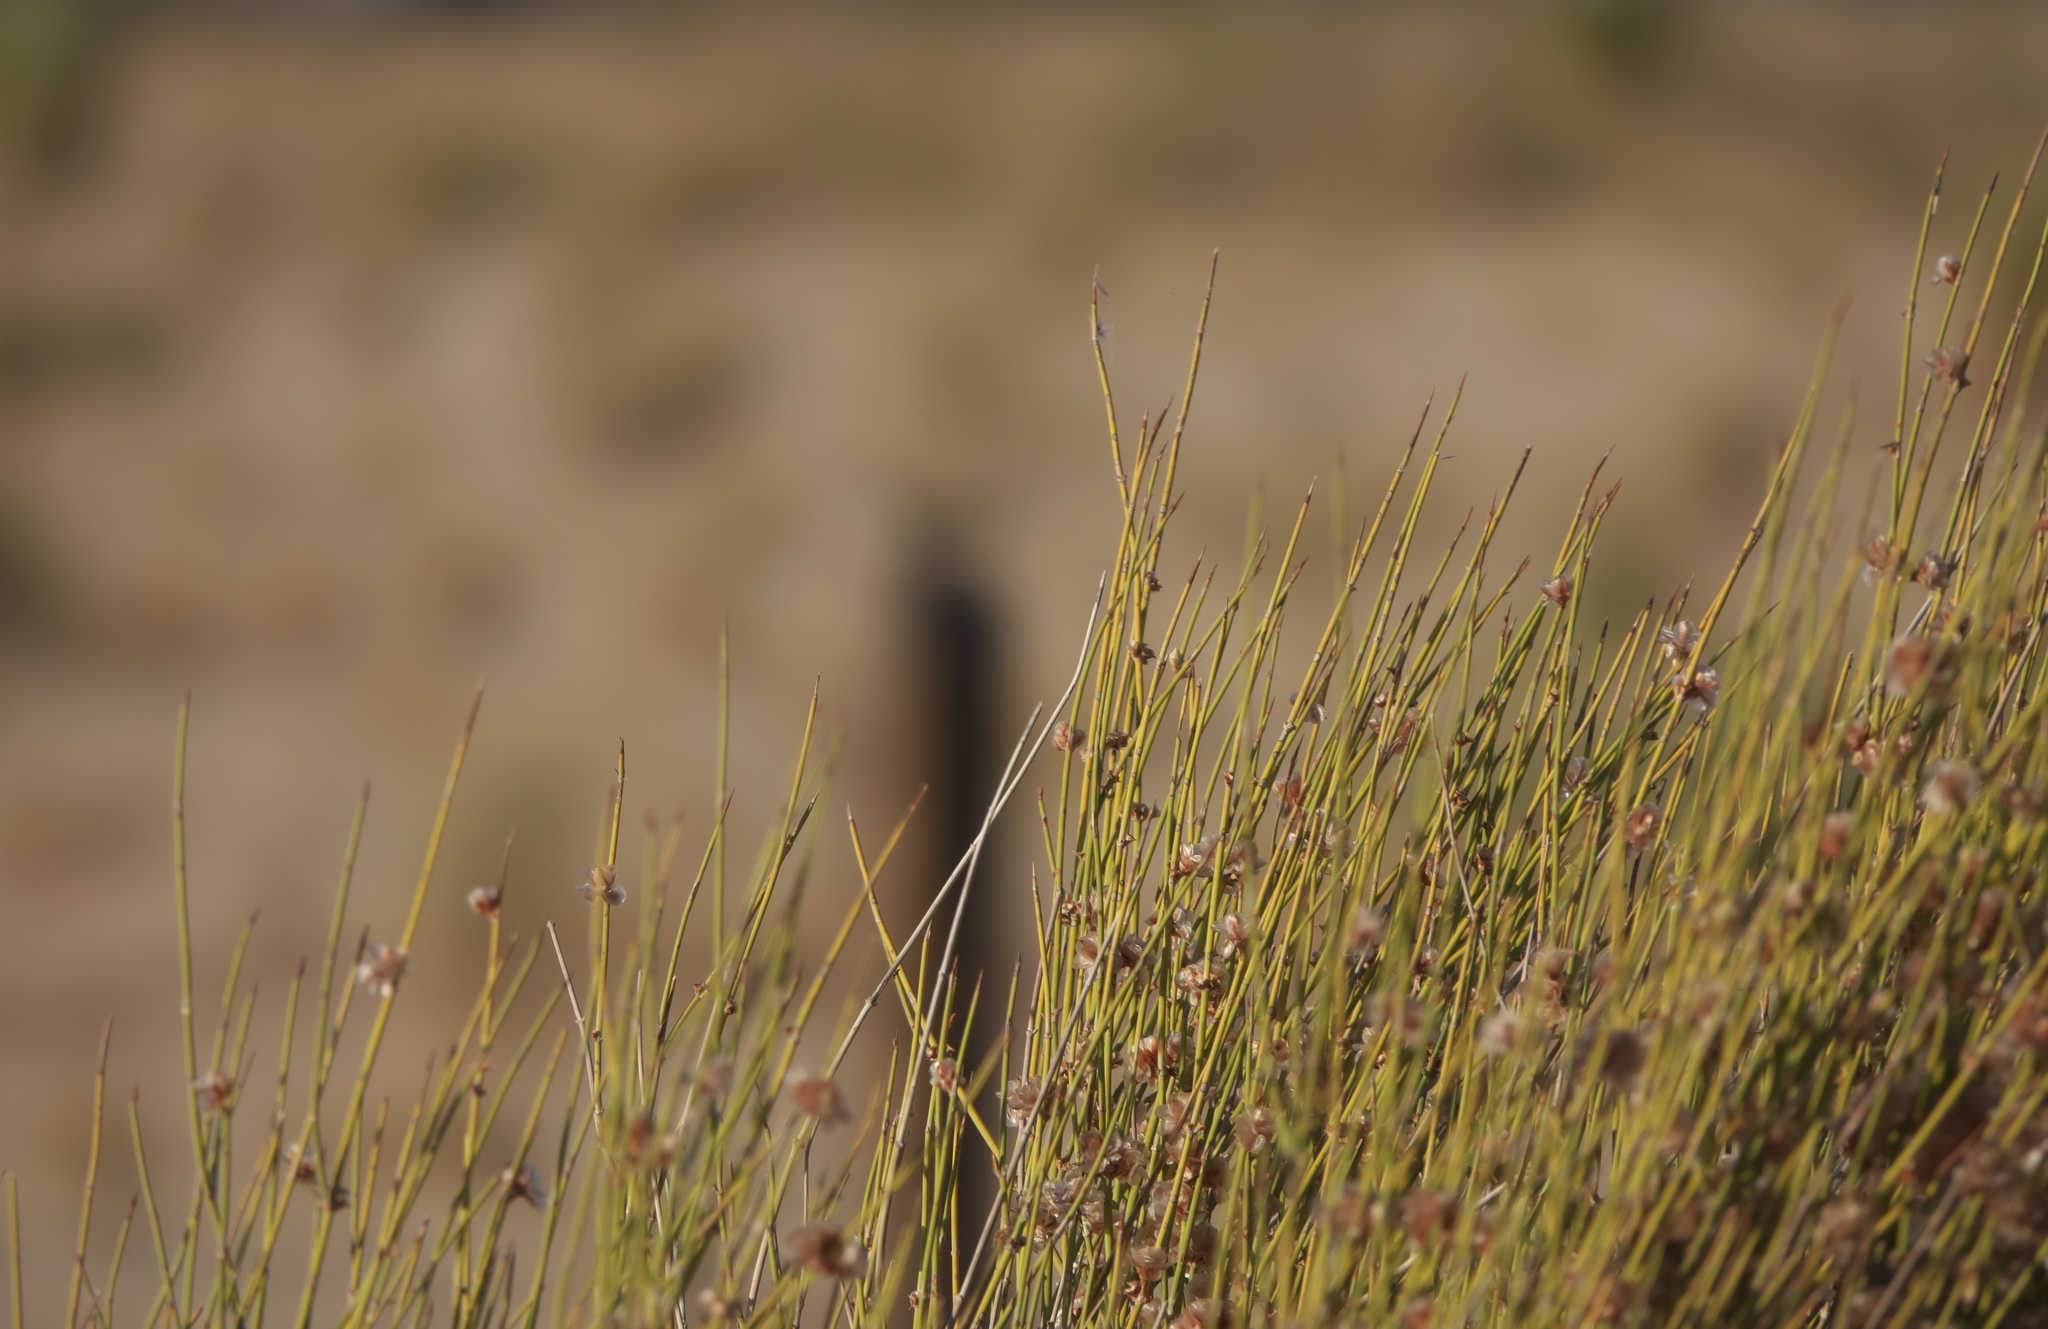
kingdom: Plantae
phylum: Tracheophyta
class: Gnetopsida
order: Ephedrales
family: Ephedraceae
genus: Ephedra
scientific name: Ephedra trifurca
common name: Mexican-tea
